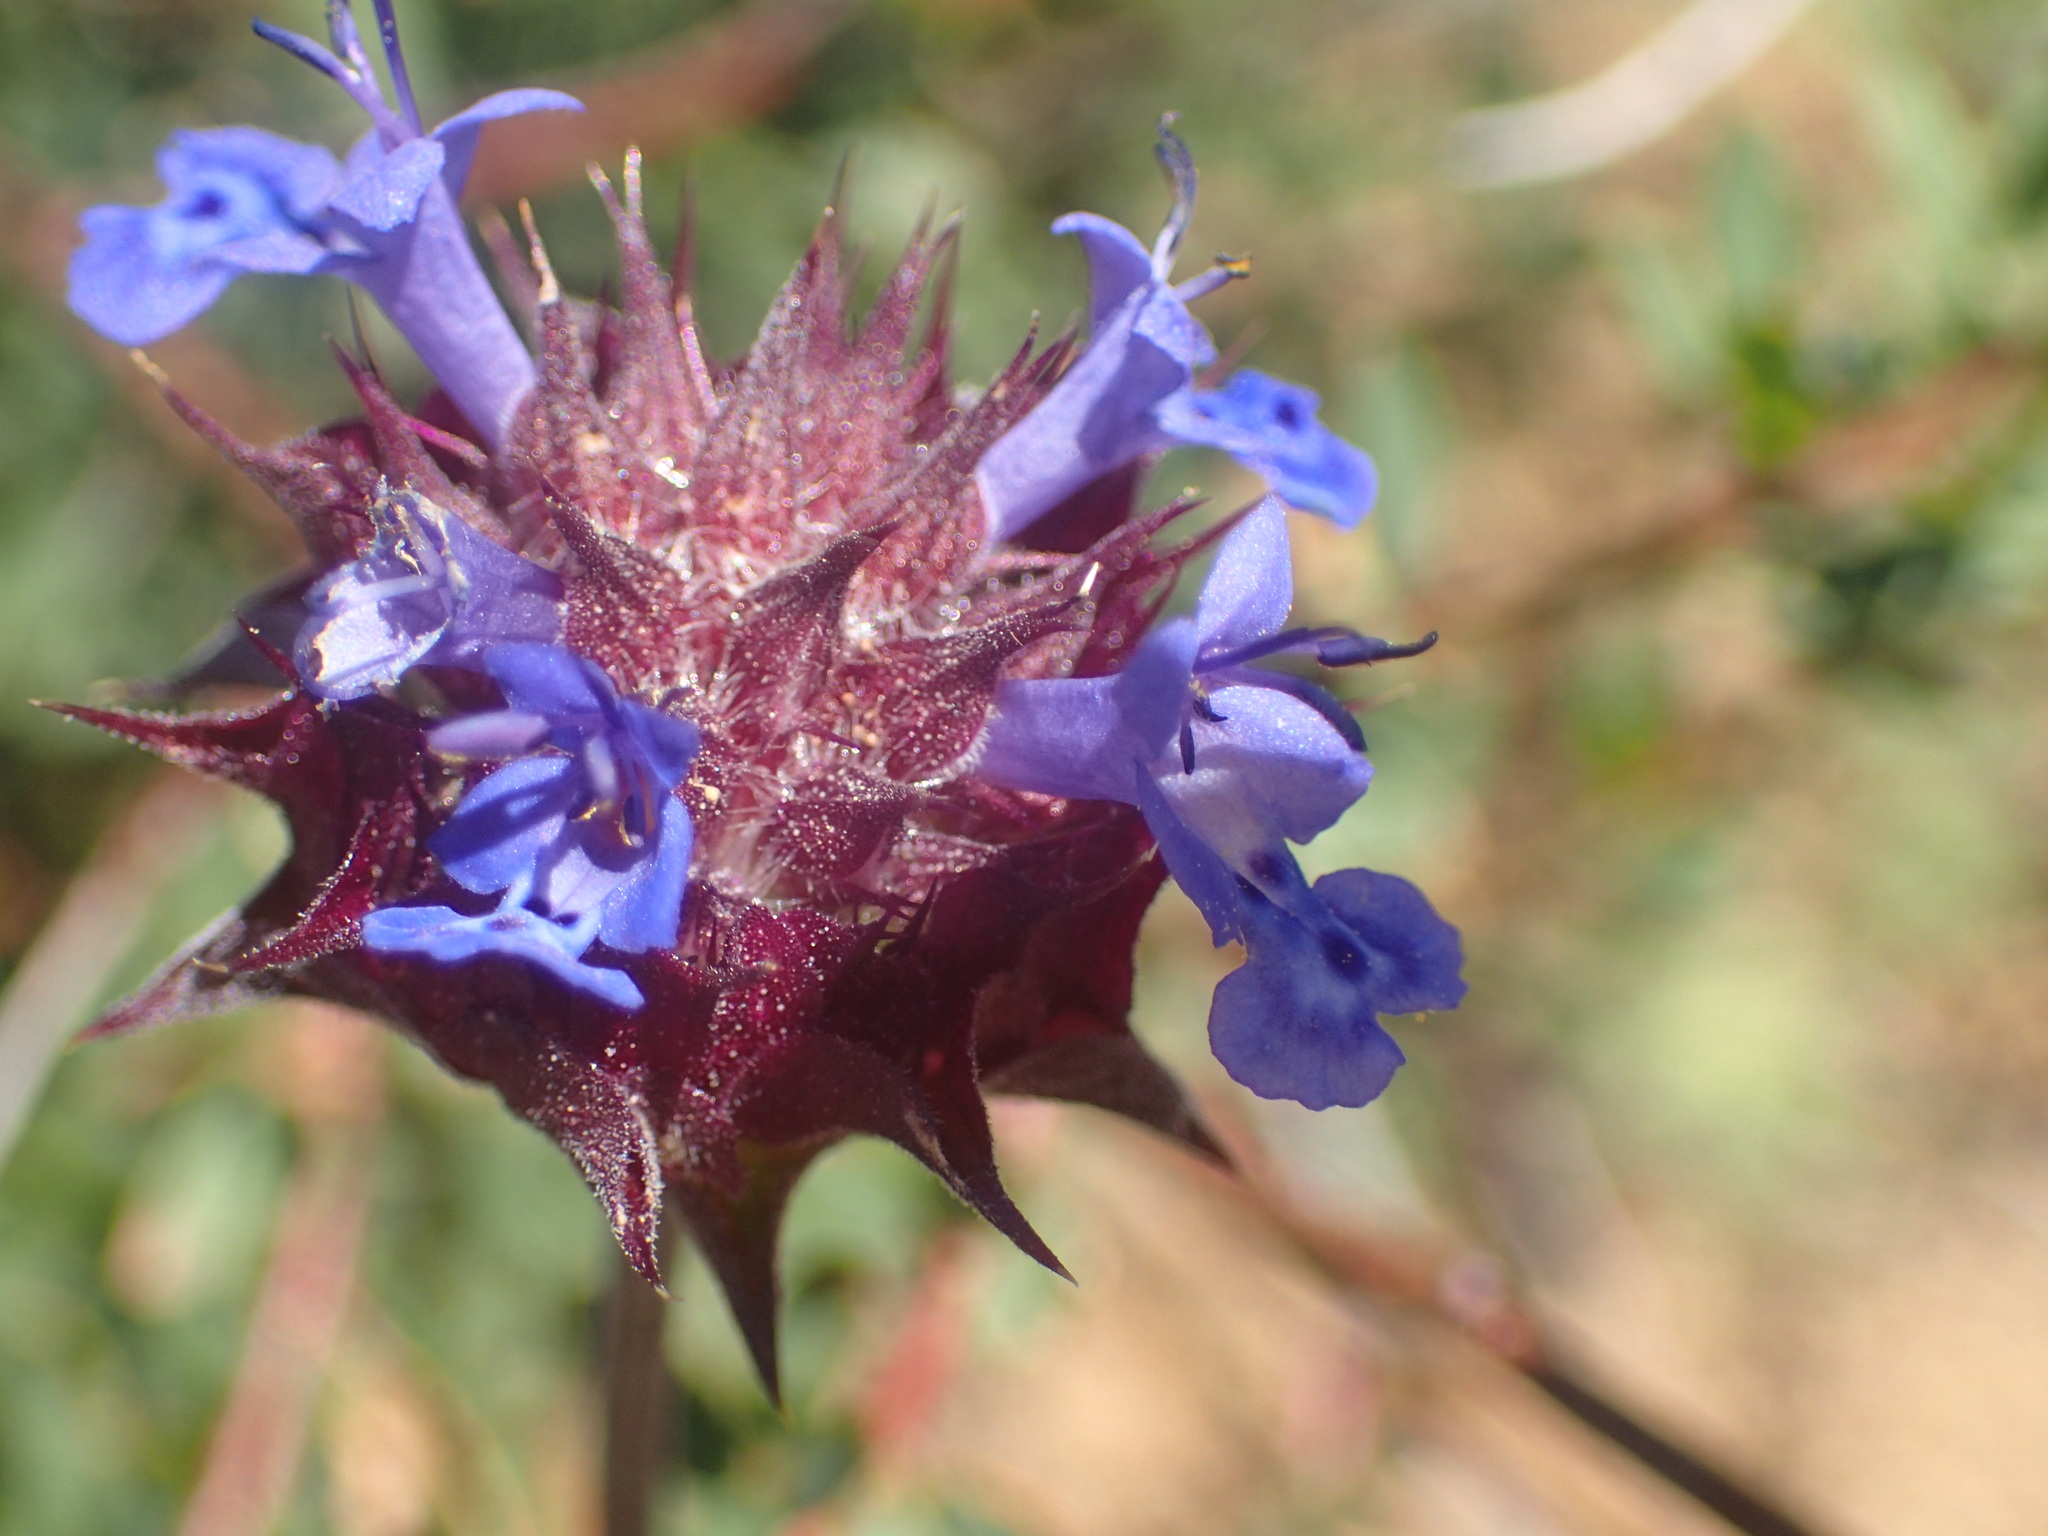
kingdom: Plantae
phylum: Tracheophyta
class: Magnoliopsida
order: Lamiales
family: Lamiaceae
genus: Salvia
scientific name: Salvia columbariae
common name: Chia
